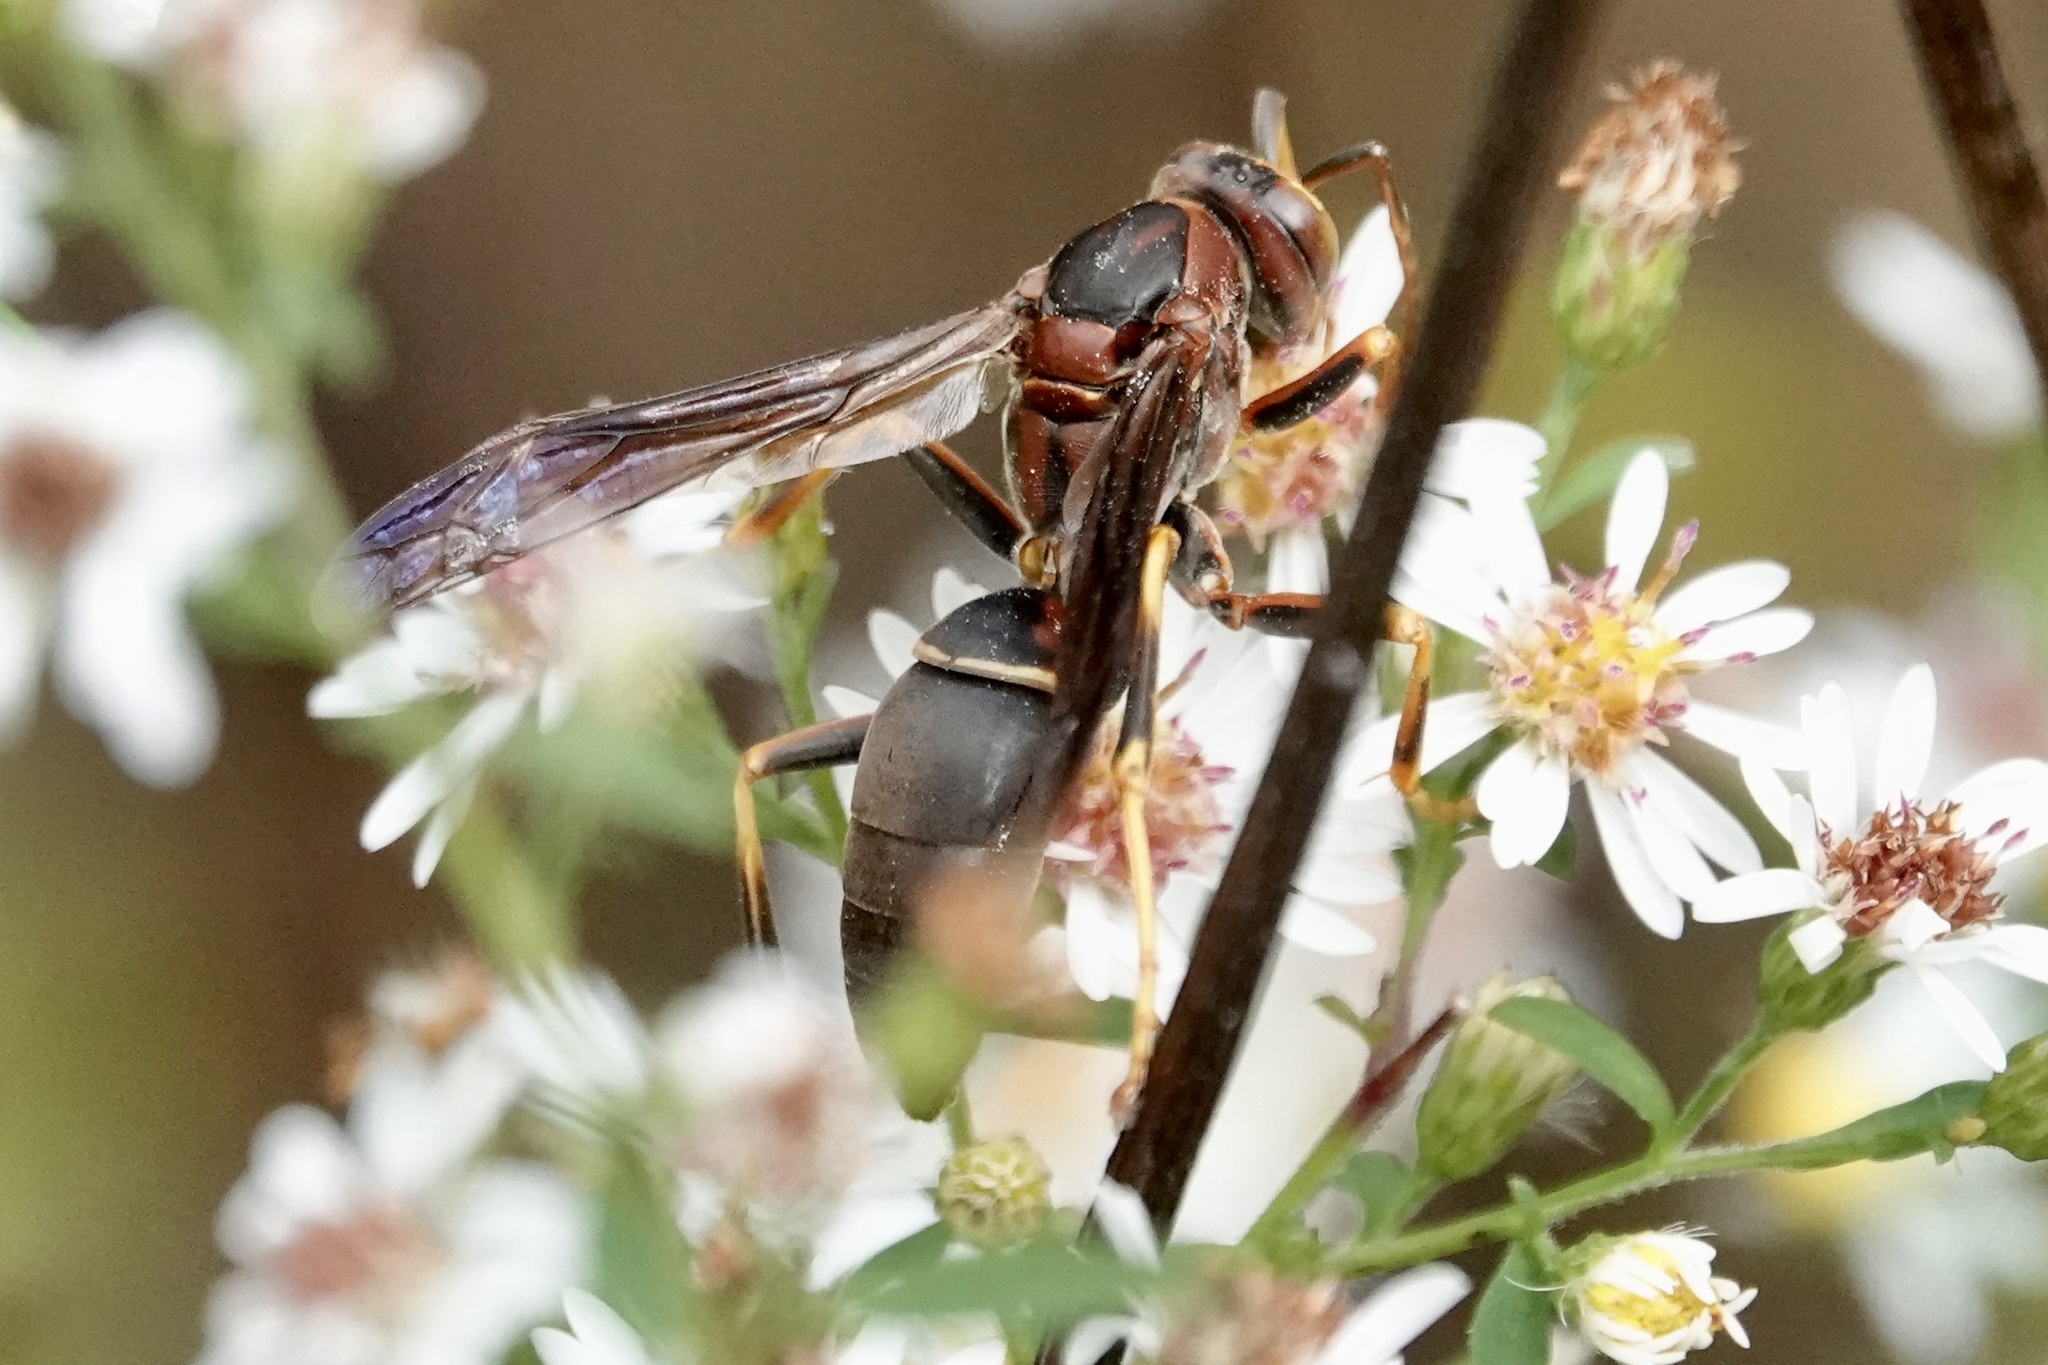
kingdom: Animalia
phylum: Arthropoda
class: Insecta
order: Hymenoptera
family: Eumenidae
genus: Polistes
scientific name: Polistes metricus
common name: Metric paper wasp
